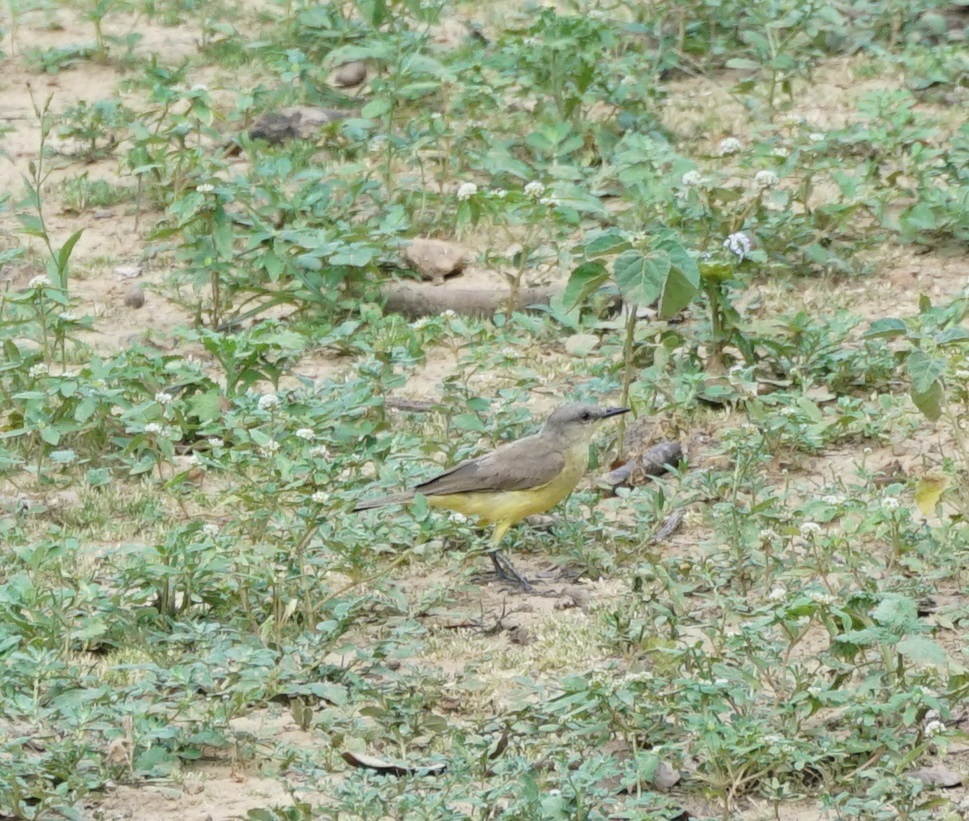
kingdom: Animalia
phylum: Chordata
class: Aves
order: Passeriformes
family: Tyrannidae
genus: Machetornis
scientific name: Machetornis rixosa
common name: Cattle tyrant
